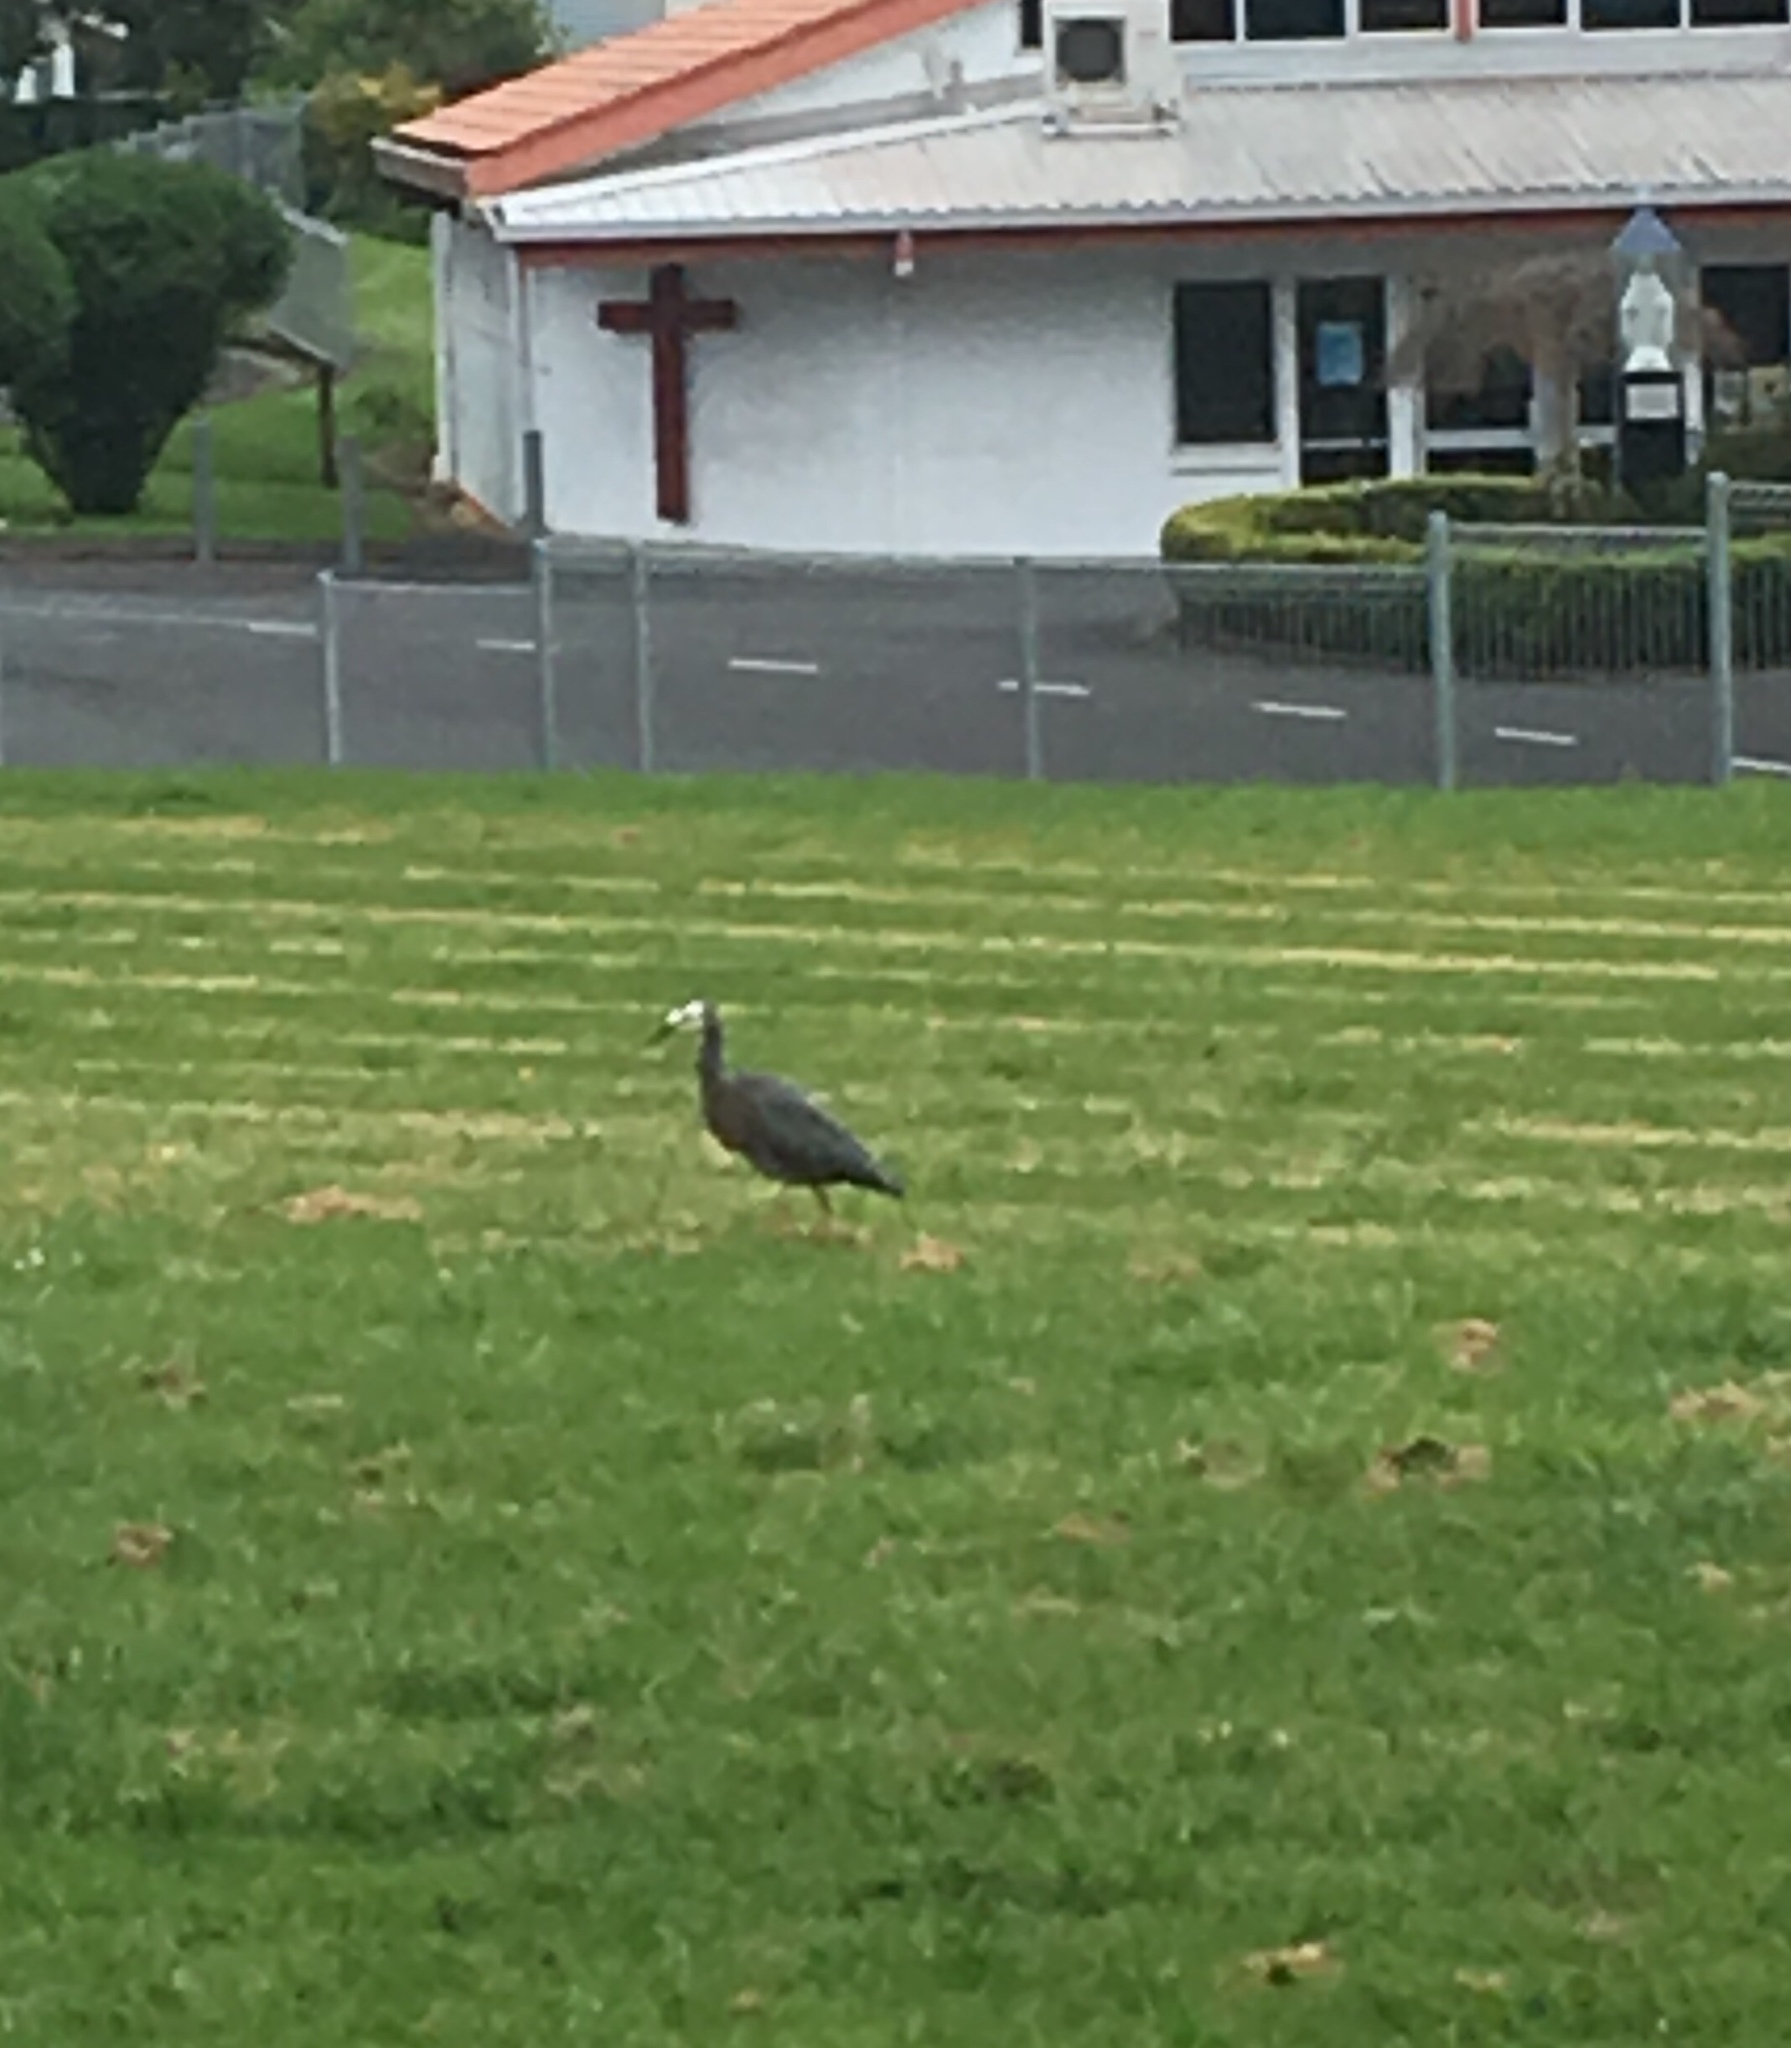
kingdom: Animalia
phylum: Chordata
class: Aves
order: Pelecaniformes
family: Ardeidae
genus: Egretta
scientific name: Egretta novaehollandiae
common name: White-faced heron
